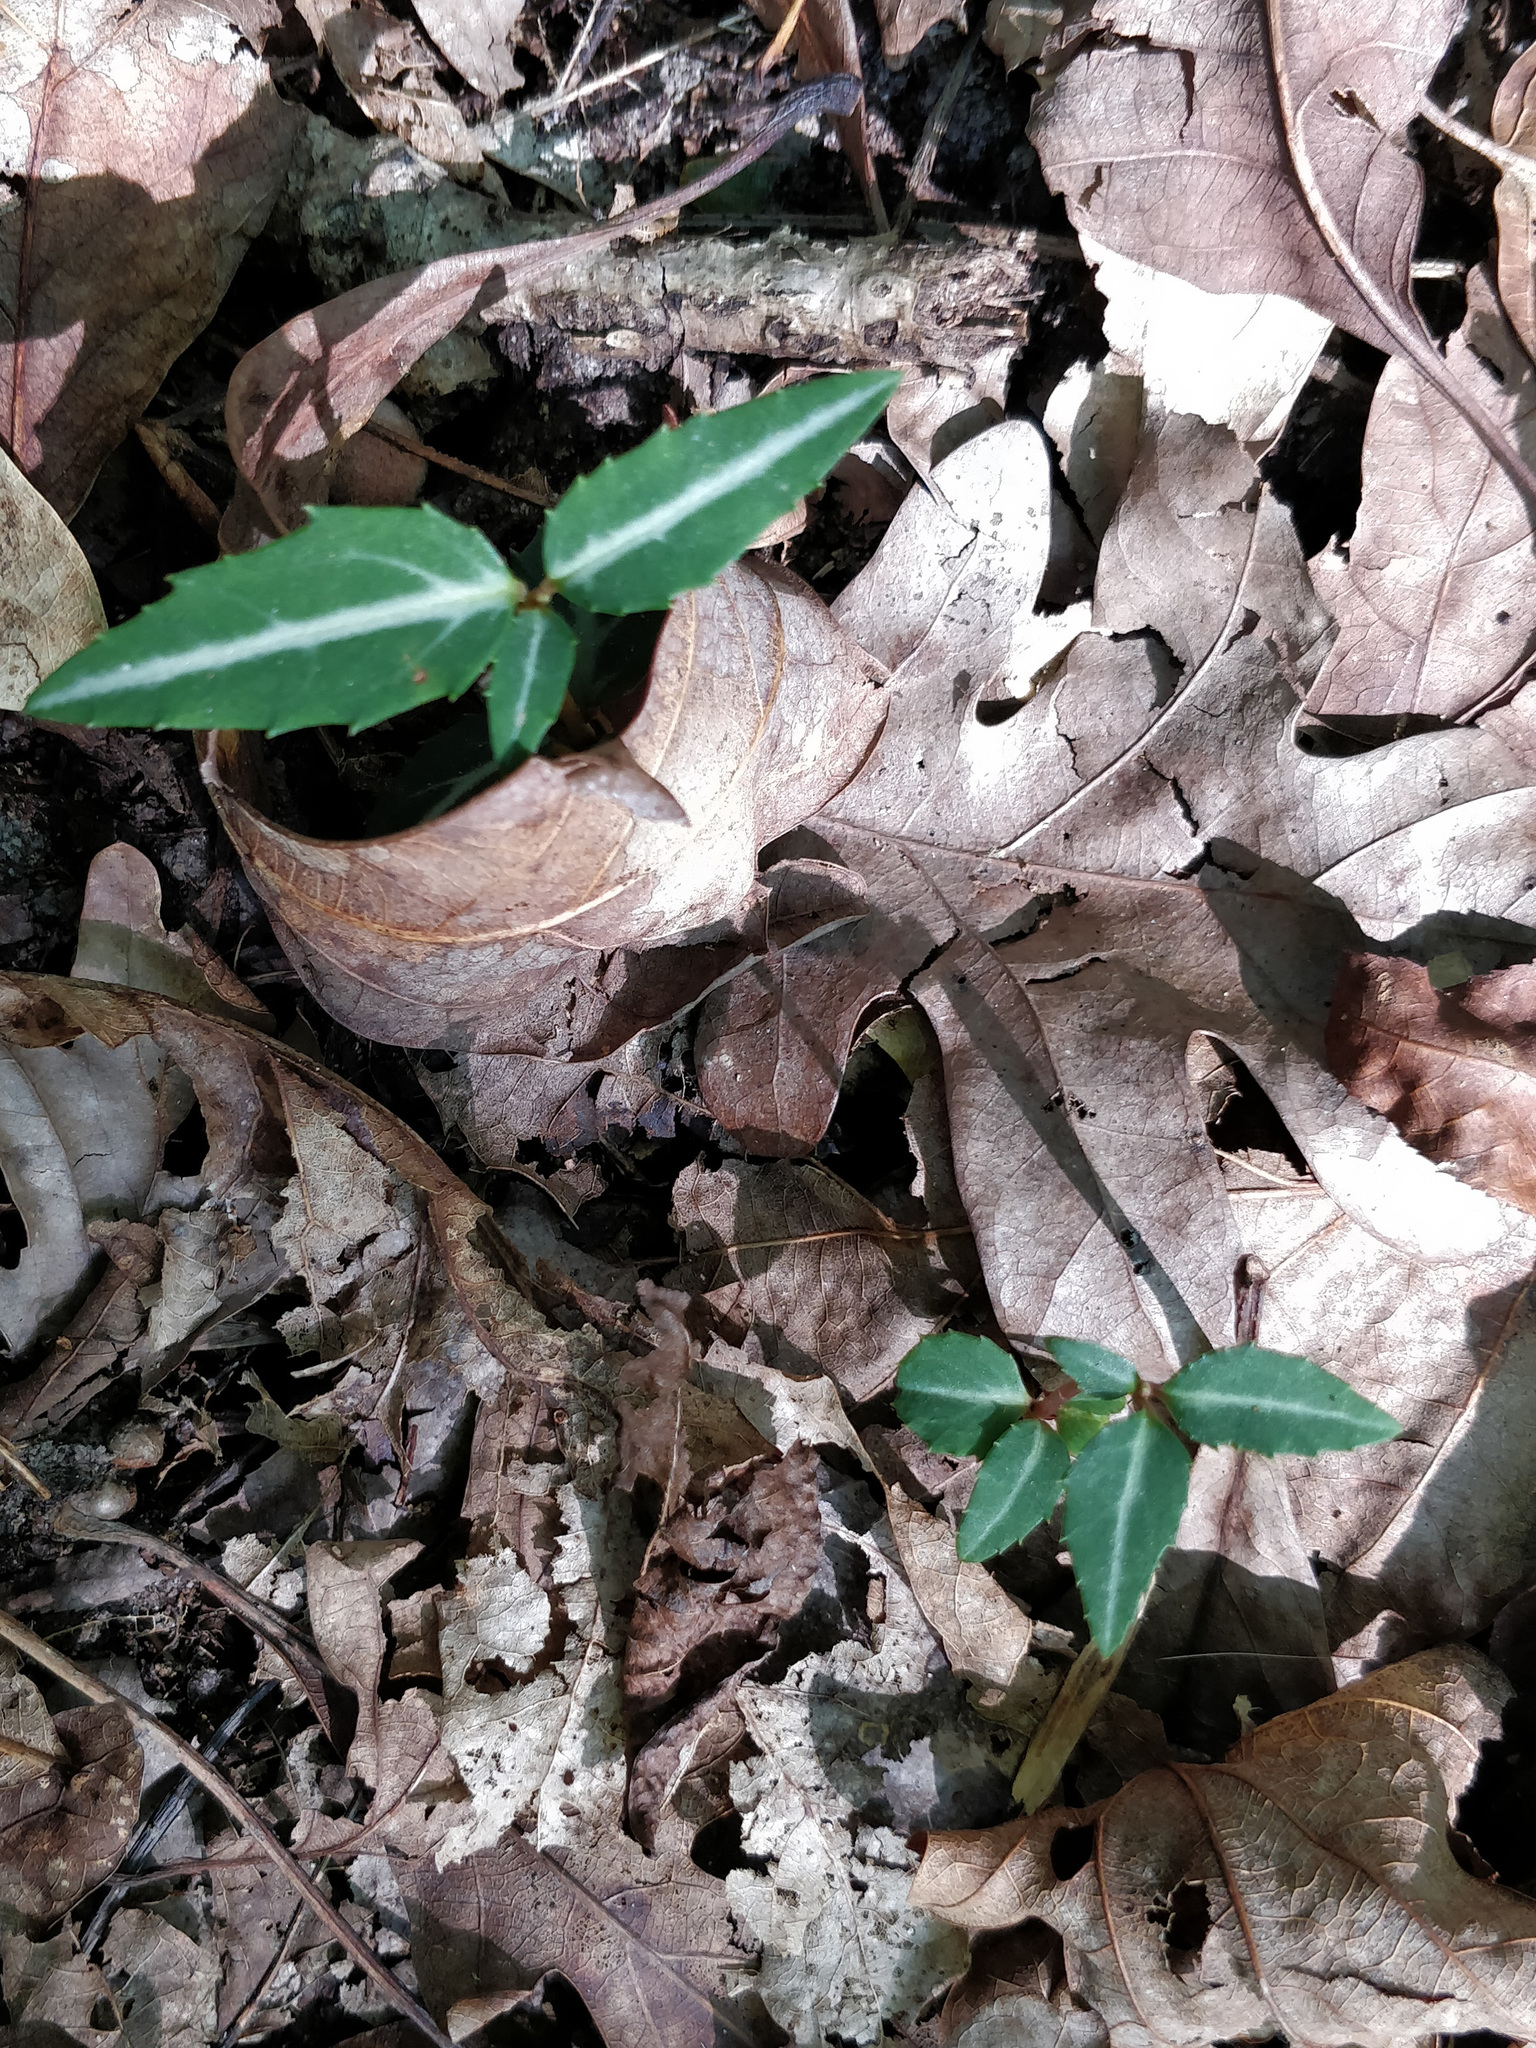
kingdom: Plantae
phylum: Tracheophyta
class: Magnoliopsida
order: Ericales
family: Ericaceae
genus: Chimaphila
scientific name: Chimaphila maculata
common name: Spotted pipsissewa
